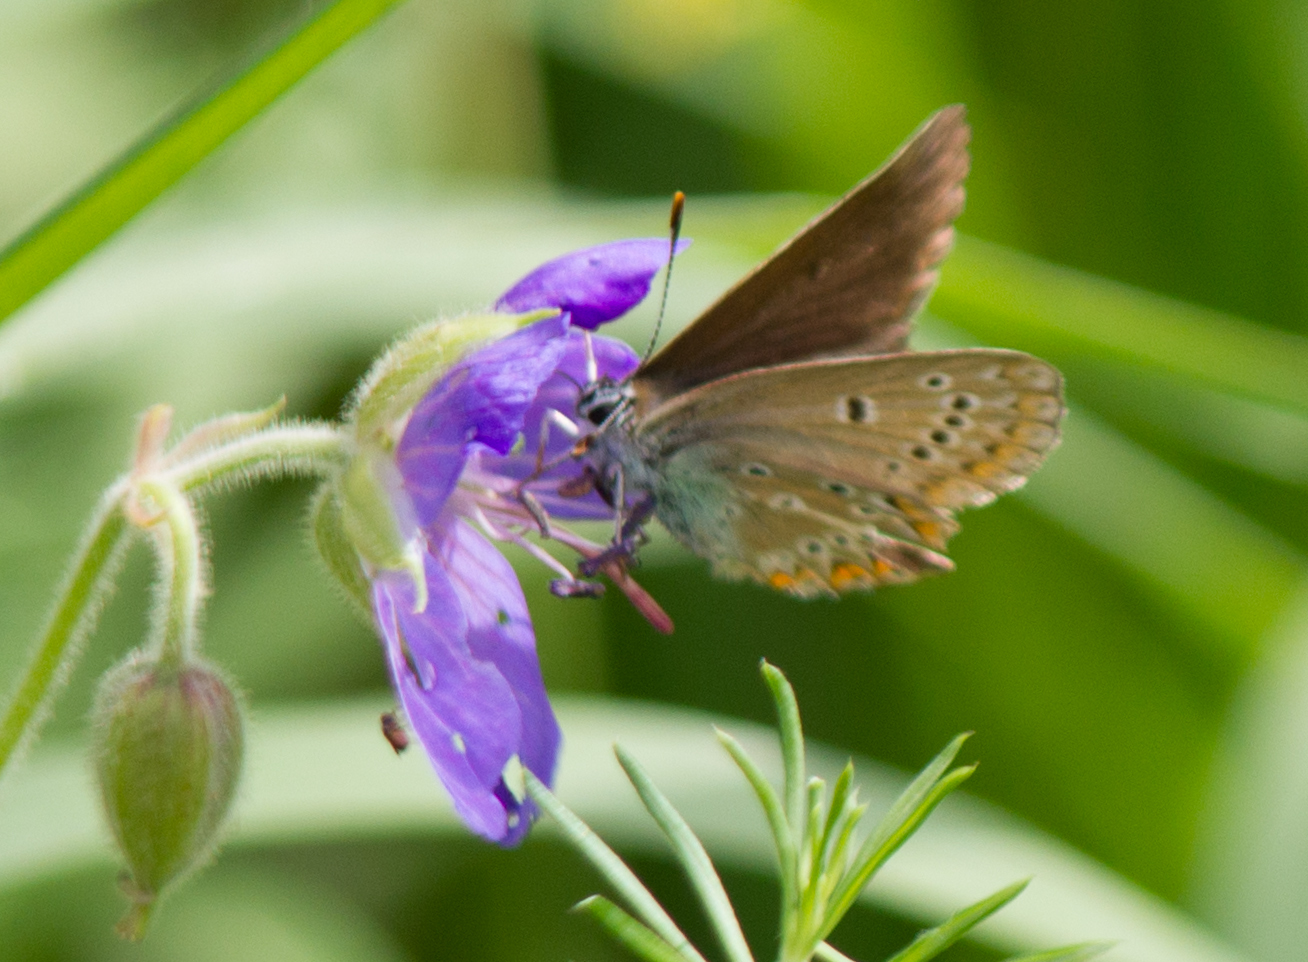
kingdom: Animalia
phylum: Arthropoda
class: Insecta
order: Lepidoptera
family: Lycaenidae
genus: Eumedonia
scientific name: Eumedonia eumedon
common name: Geranium argus
